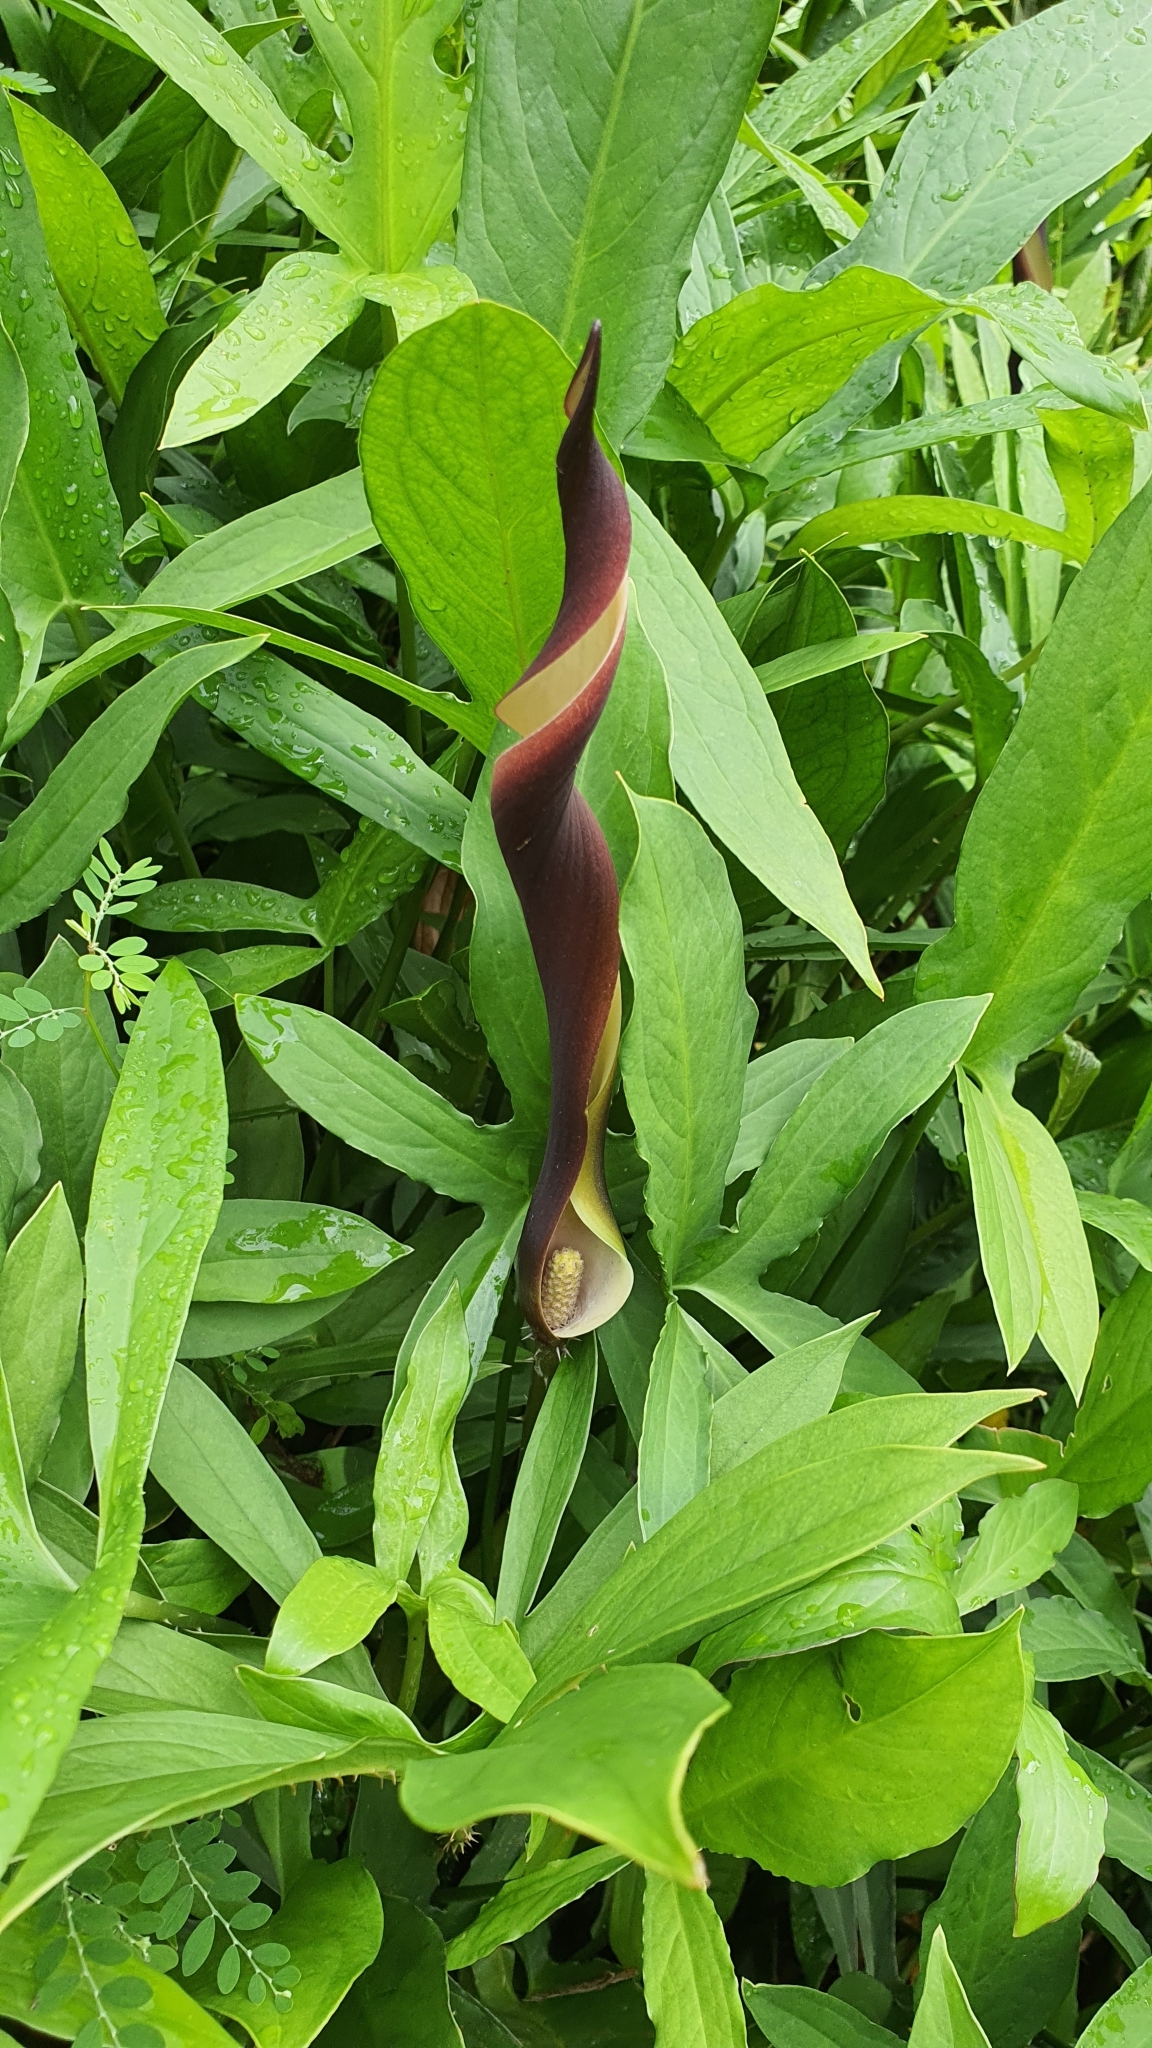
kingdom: Plantae
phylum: Tracheophyta
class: Liliopsida
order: Alismatales
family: Araceae
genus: Lasia
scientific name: Lasia spinosa
